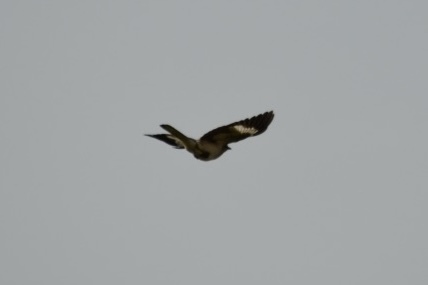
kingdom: Animalia
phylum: Chordata
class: Aves
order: Passeriformes
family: Mimidae
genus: Mimus
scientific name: Mimus polyglottos
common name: Northern mockingbird
